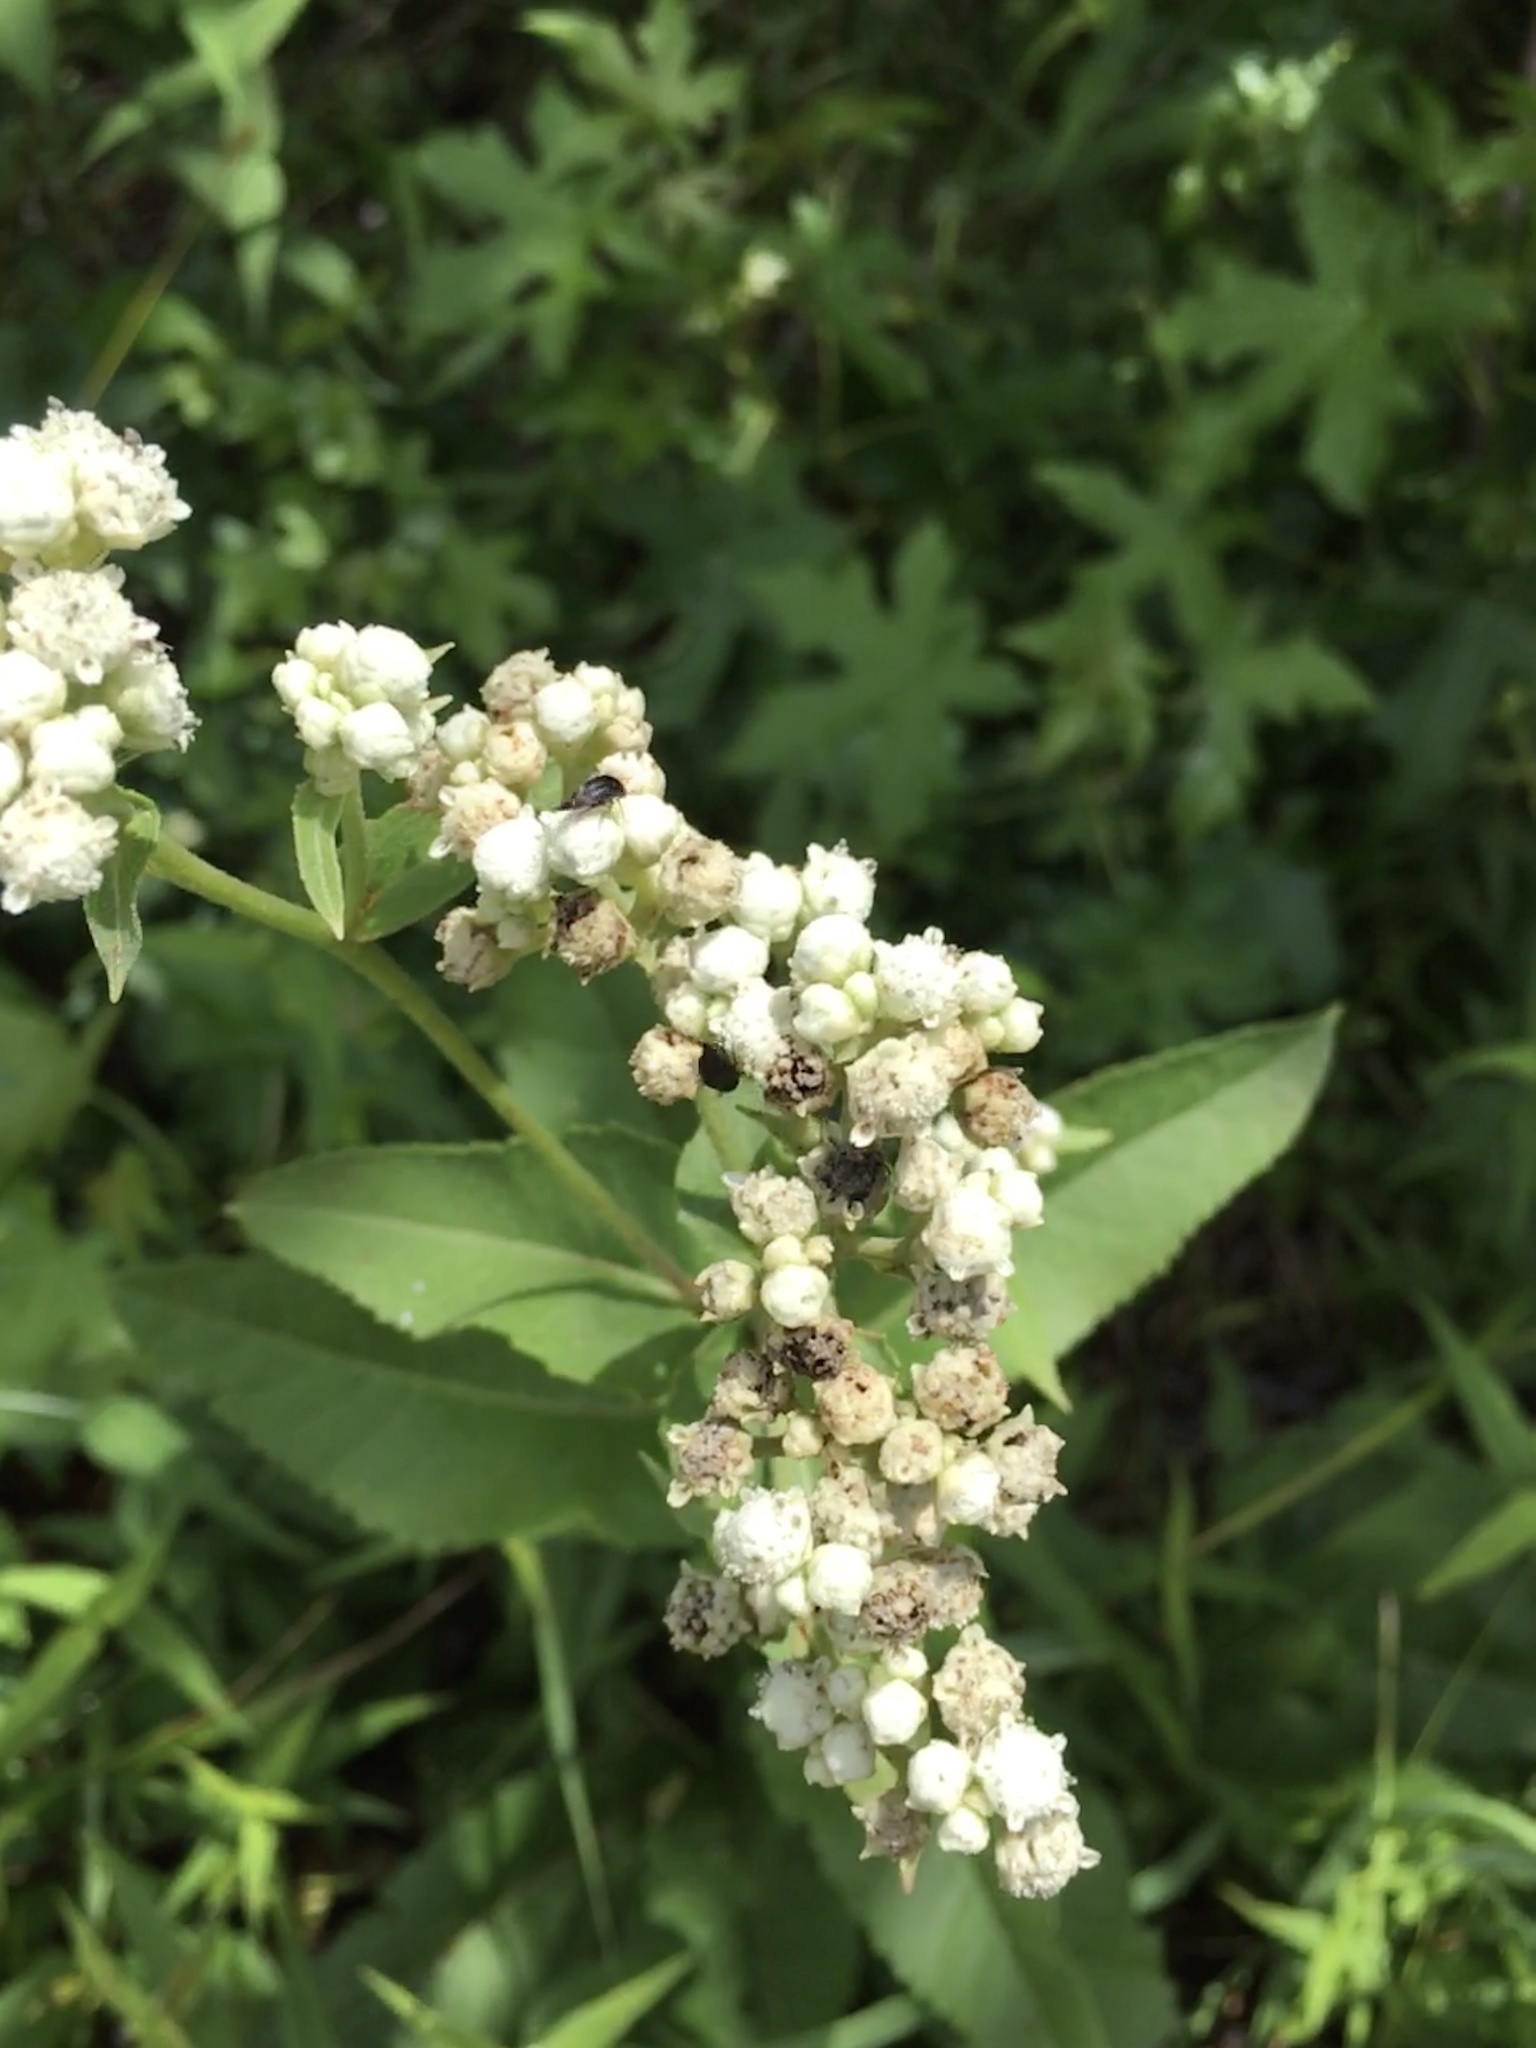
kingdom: Plantae
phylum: Tracheophyta
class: Magnoliopsida
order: Asterales
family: Asteraceae
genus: Parthenium
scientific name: Parthenium integrifolium
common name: American feverfew
